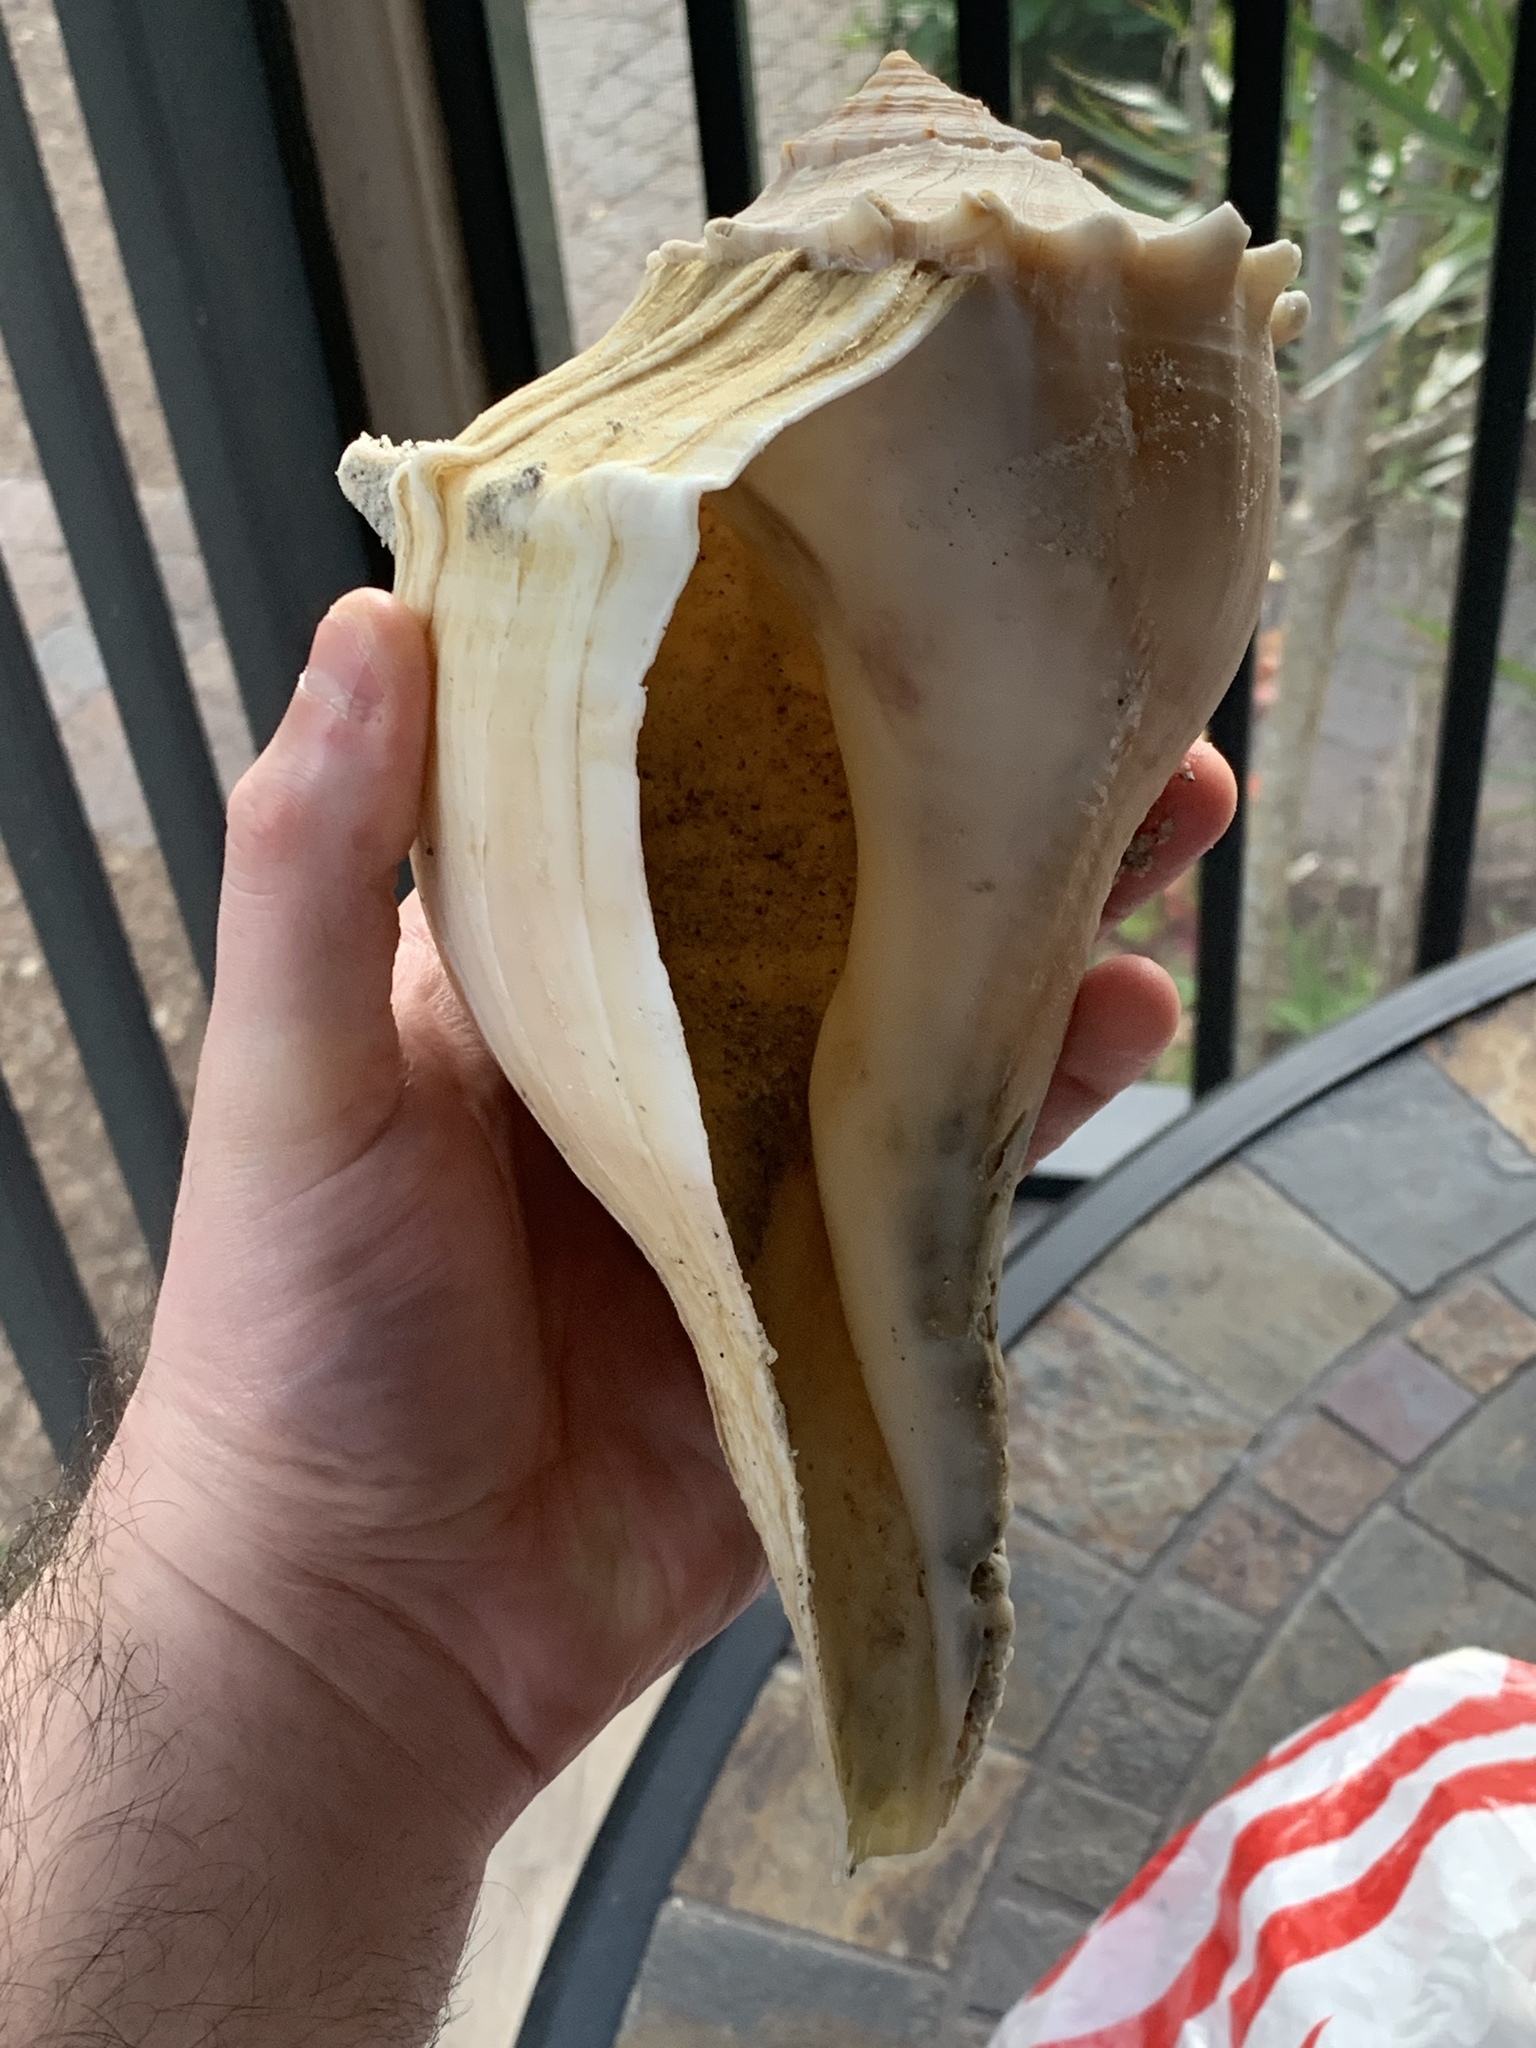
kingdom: Animalia
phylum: Mollusca
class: Gastropoda
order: Neogastropoda
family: Busyconidae
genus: Sinistrofulgur
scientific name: Sinistrofulgur sinistrum
